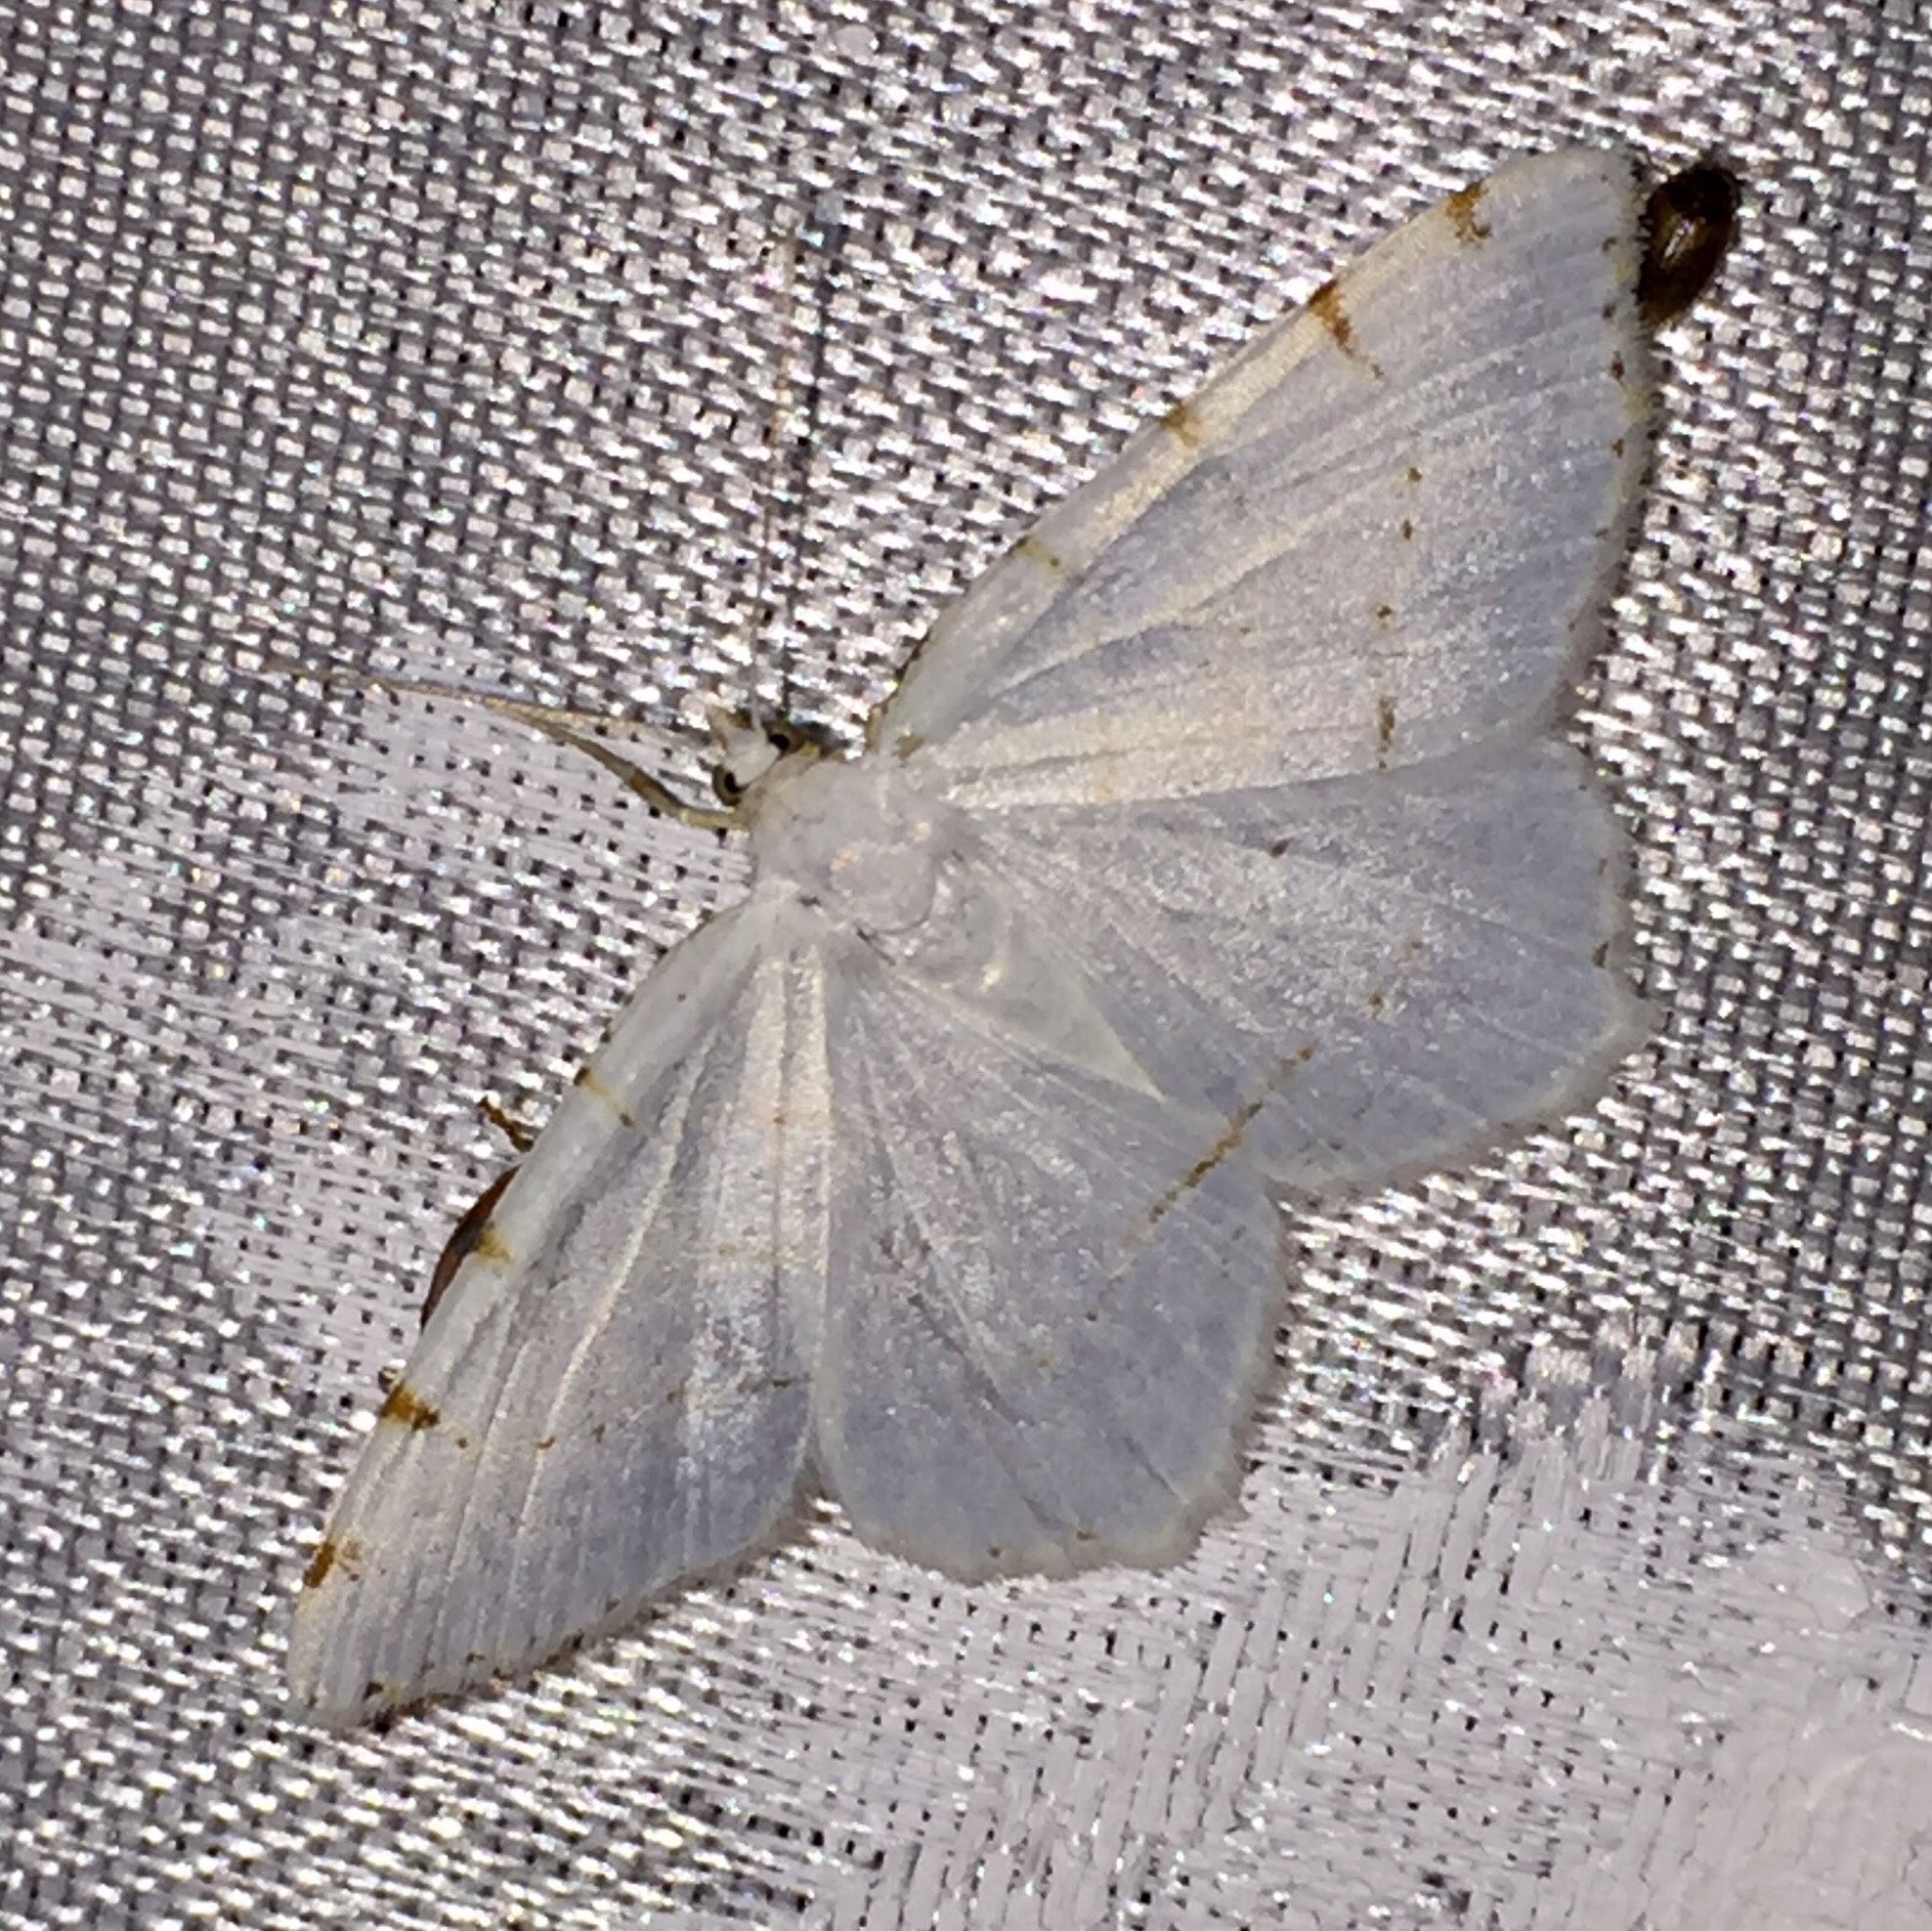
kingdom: Animalia
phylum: Arthropoda
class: Insecta
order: Lepidoptera
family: Geometridae
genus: Macaria
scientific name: Macaria pustularia
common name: Lesser maple spanworm moth
